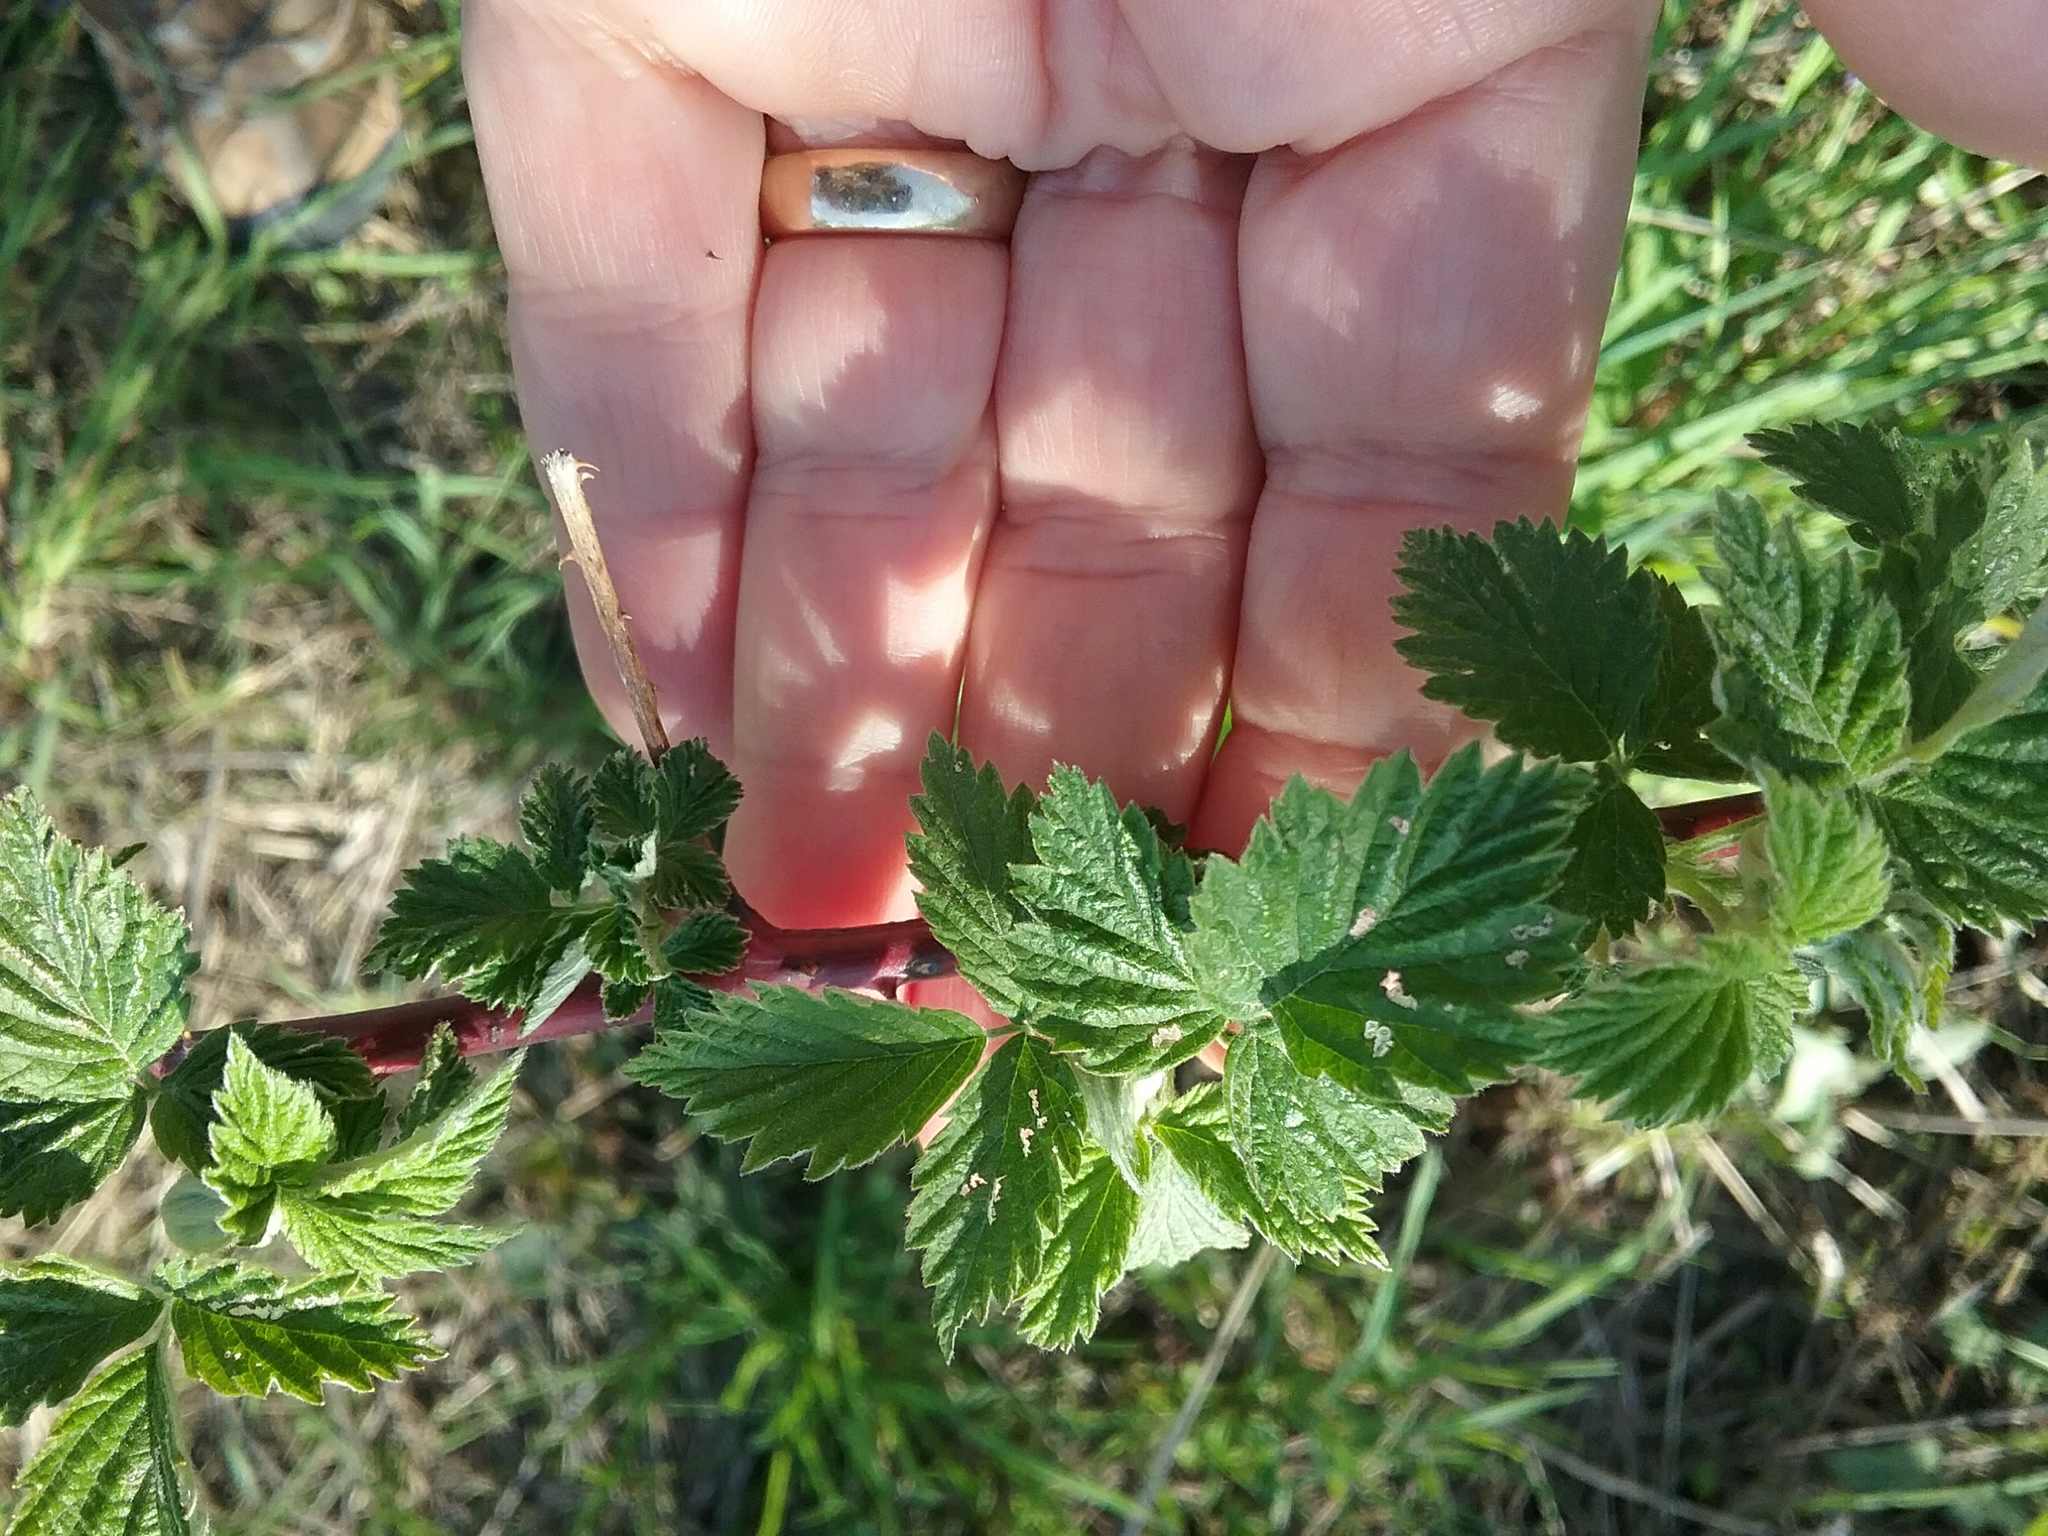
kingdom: Plantae
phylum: Tracheophyta
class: Magnoliopsida
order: Rosales
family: Rosaceae
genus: Rubus
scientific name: Rubus occidentalis
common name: Black raspberry
